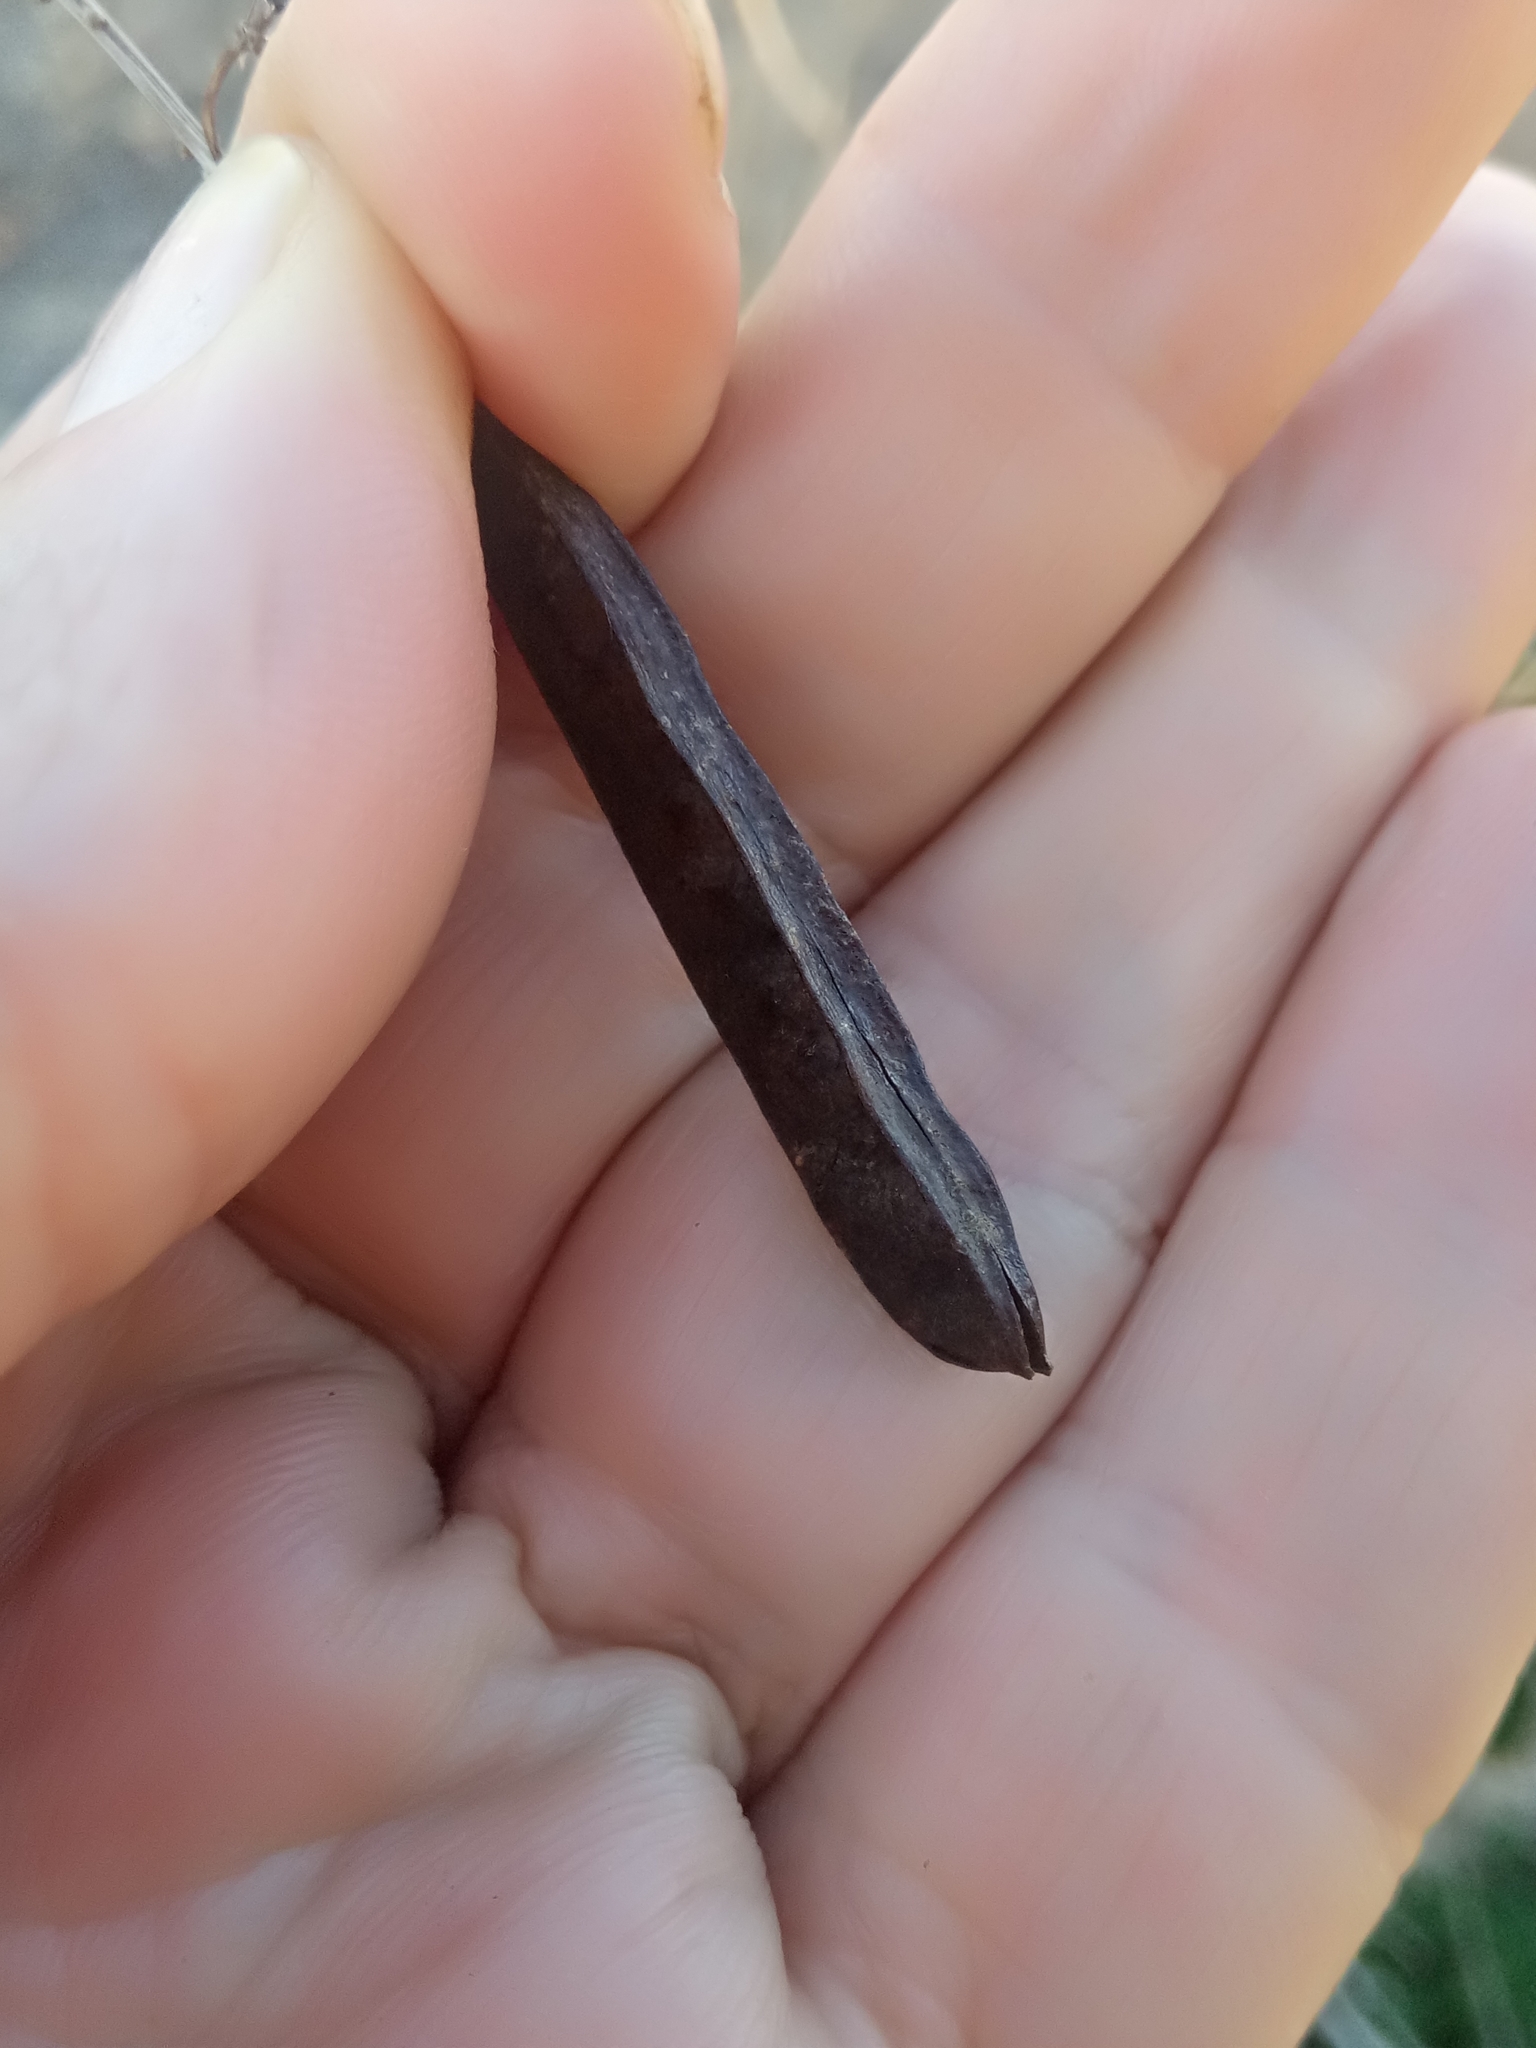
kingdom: Plantae
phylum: Tracheophyta
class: Magnoliopsida
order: Fabales
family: Fabaceae
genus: Calicotome
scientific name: Calicotome spinosa
